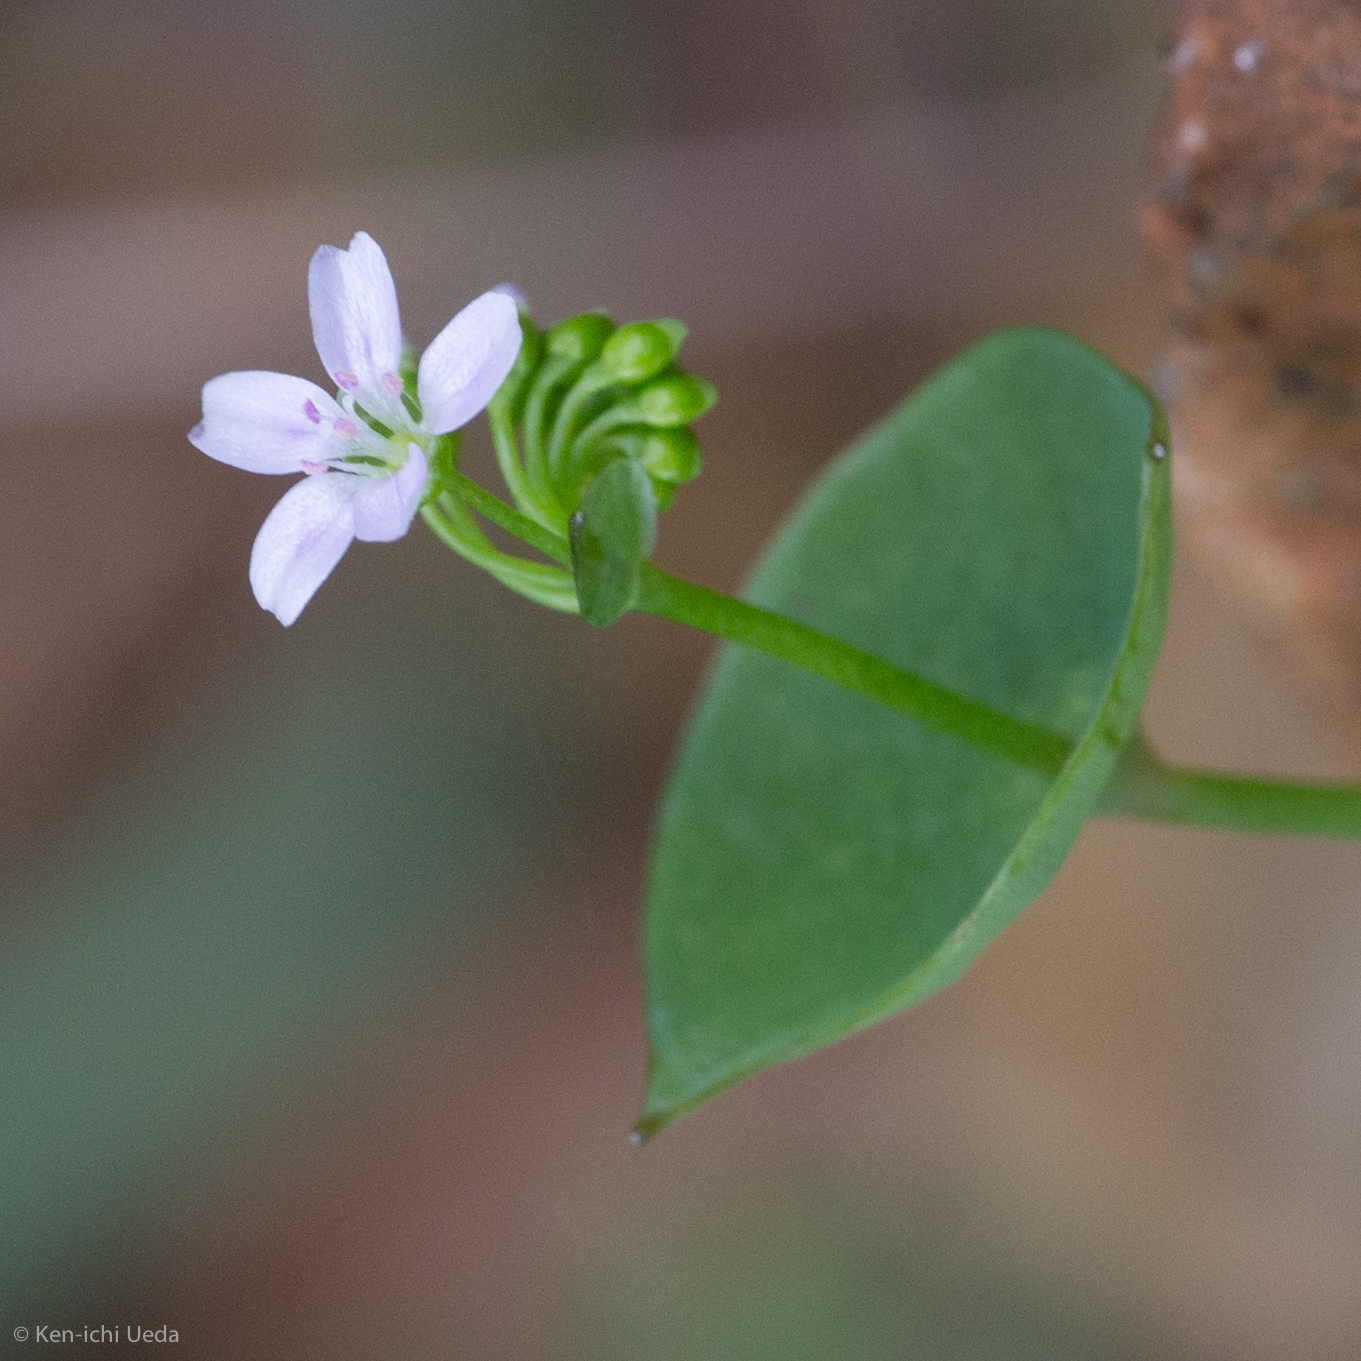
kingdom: Plantae
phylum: Tracheophyta
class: Magnoliopsida
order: Caryophyllales
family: Montiaceae
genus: Claytonia
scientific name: Claytonia parviflora
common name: Indian-lettuce
